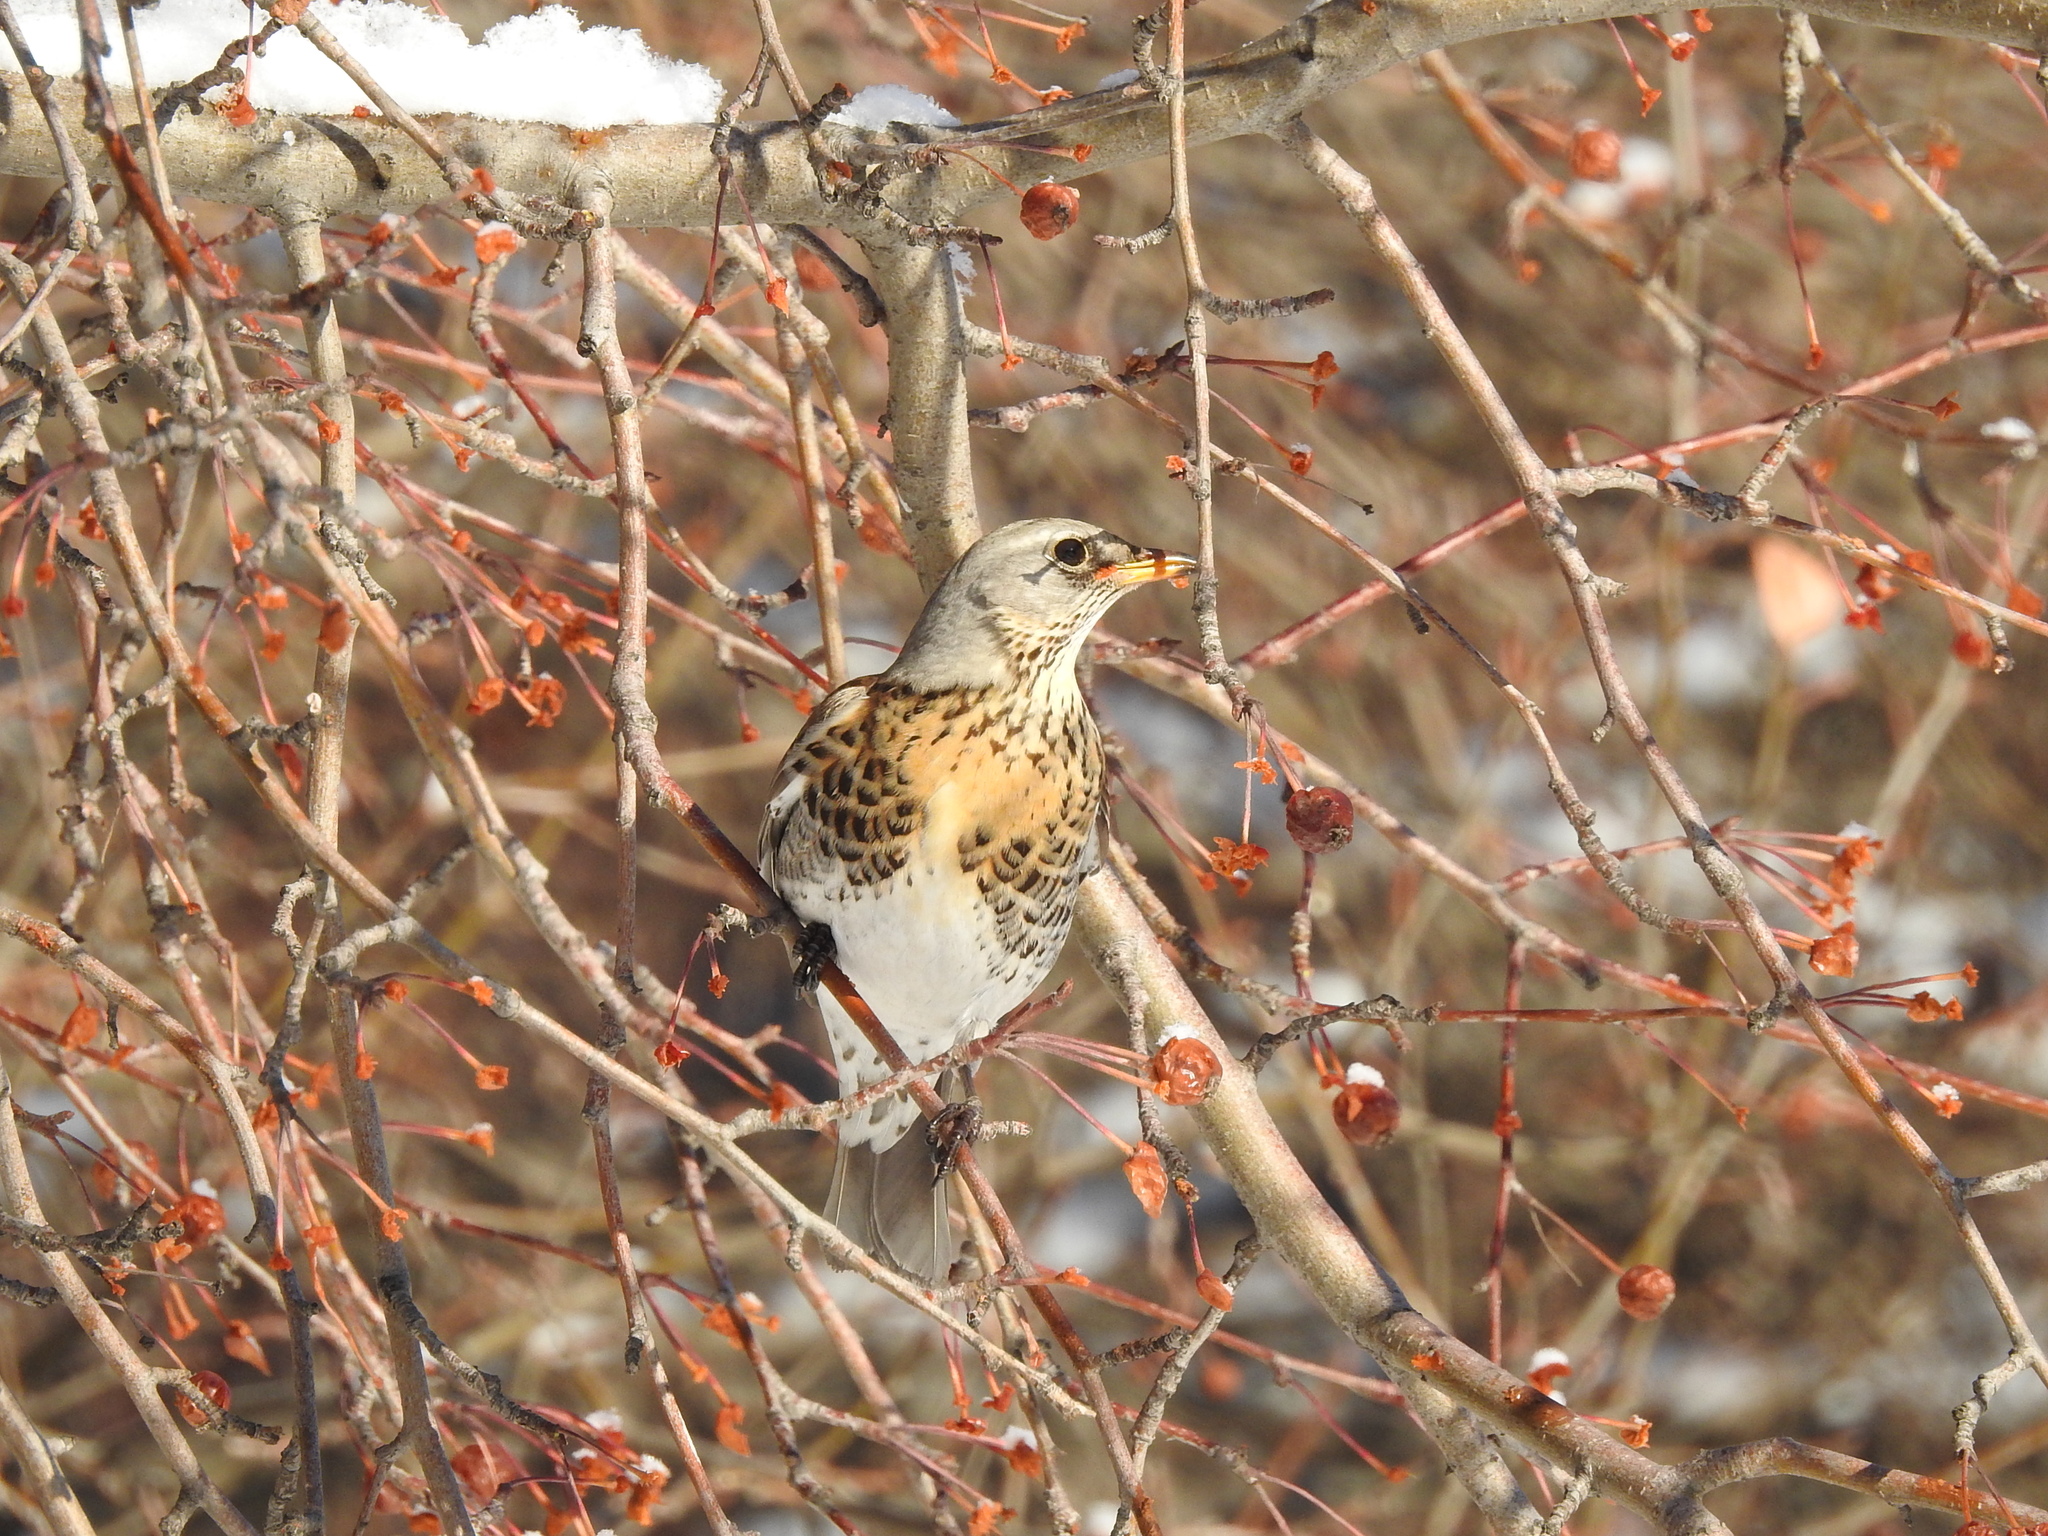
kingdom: Animalia
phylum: Chordata
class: Aves
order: Passeriformes
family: Turdidae
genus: Turdus
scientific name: Turdus pilaris
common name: Fieldfare
